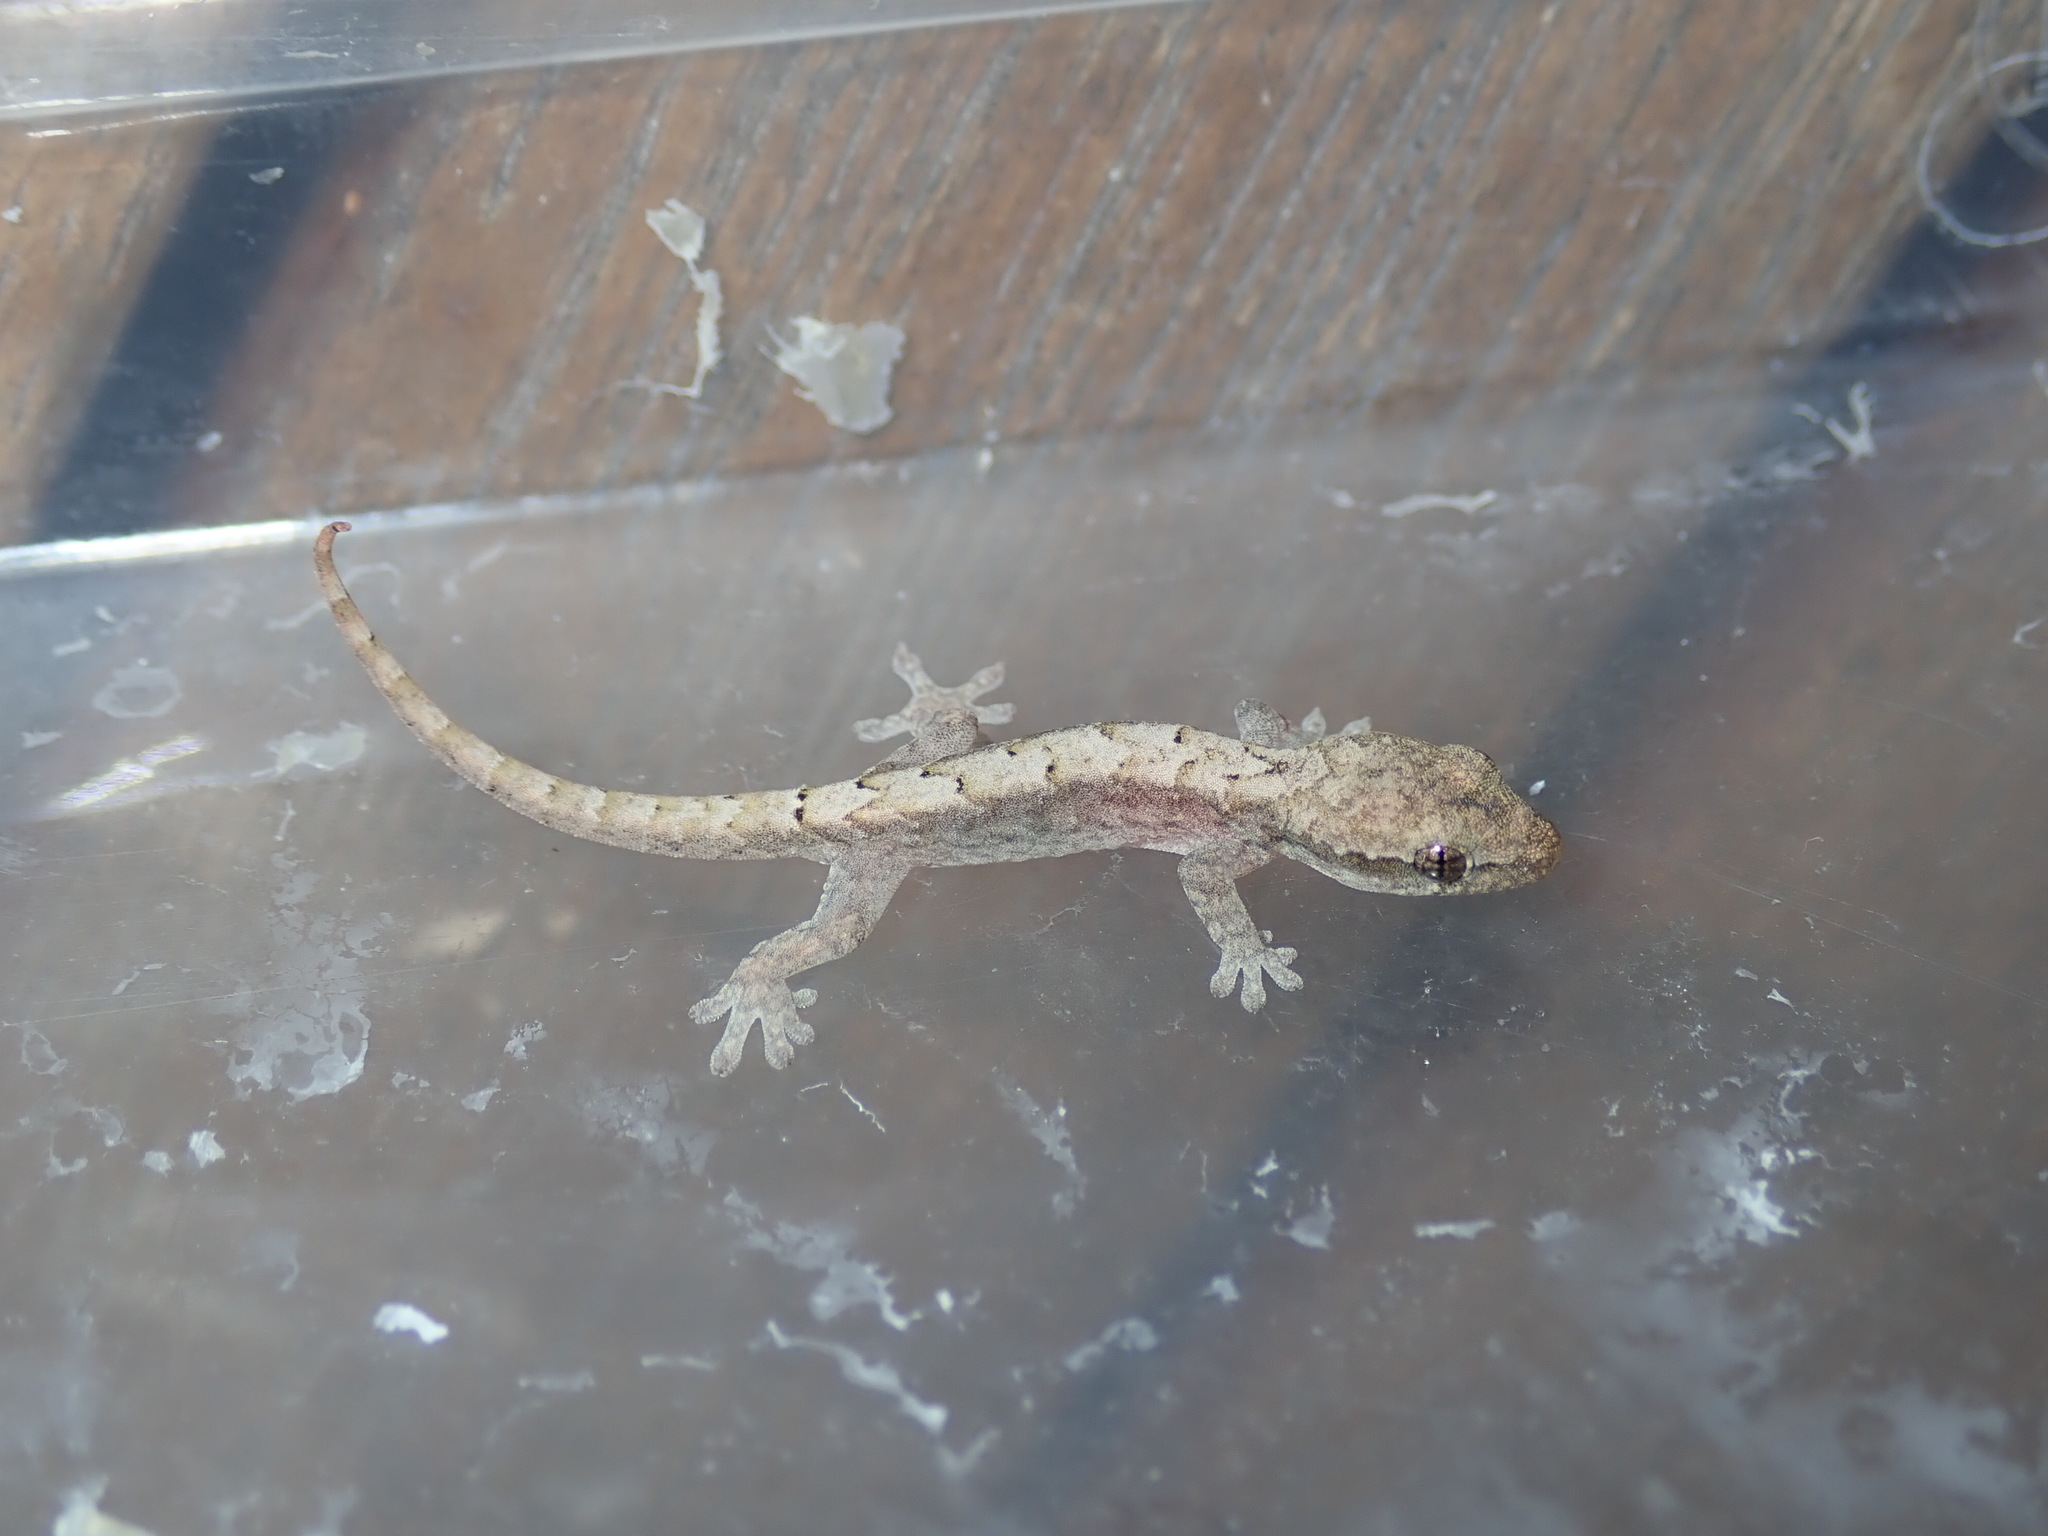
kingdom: Animalia
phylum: Chordata
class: Squamata
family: Gekkonidae
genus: Lepidodactylus
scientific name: Lepidodactylus lugubris
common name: Mourning gecko
